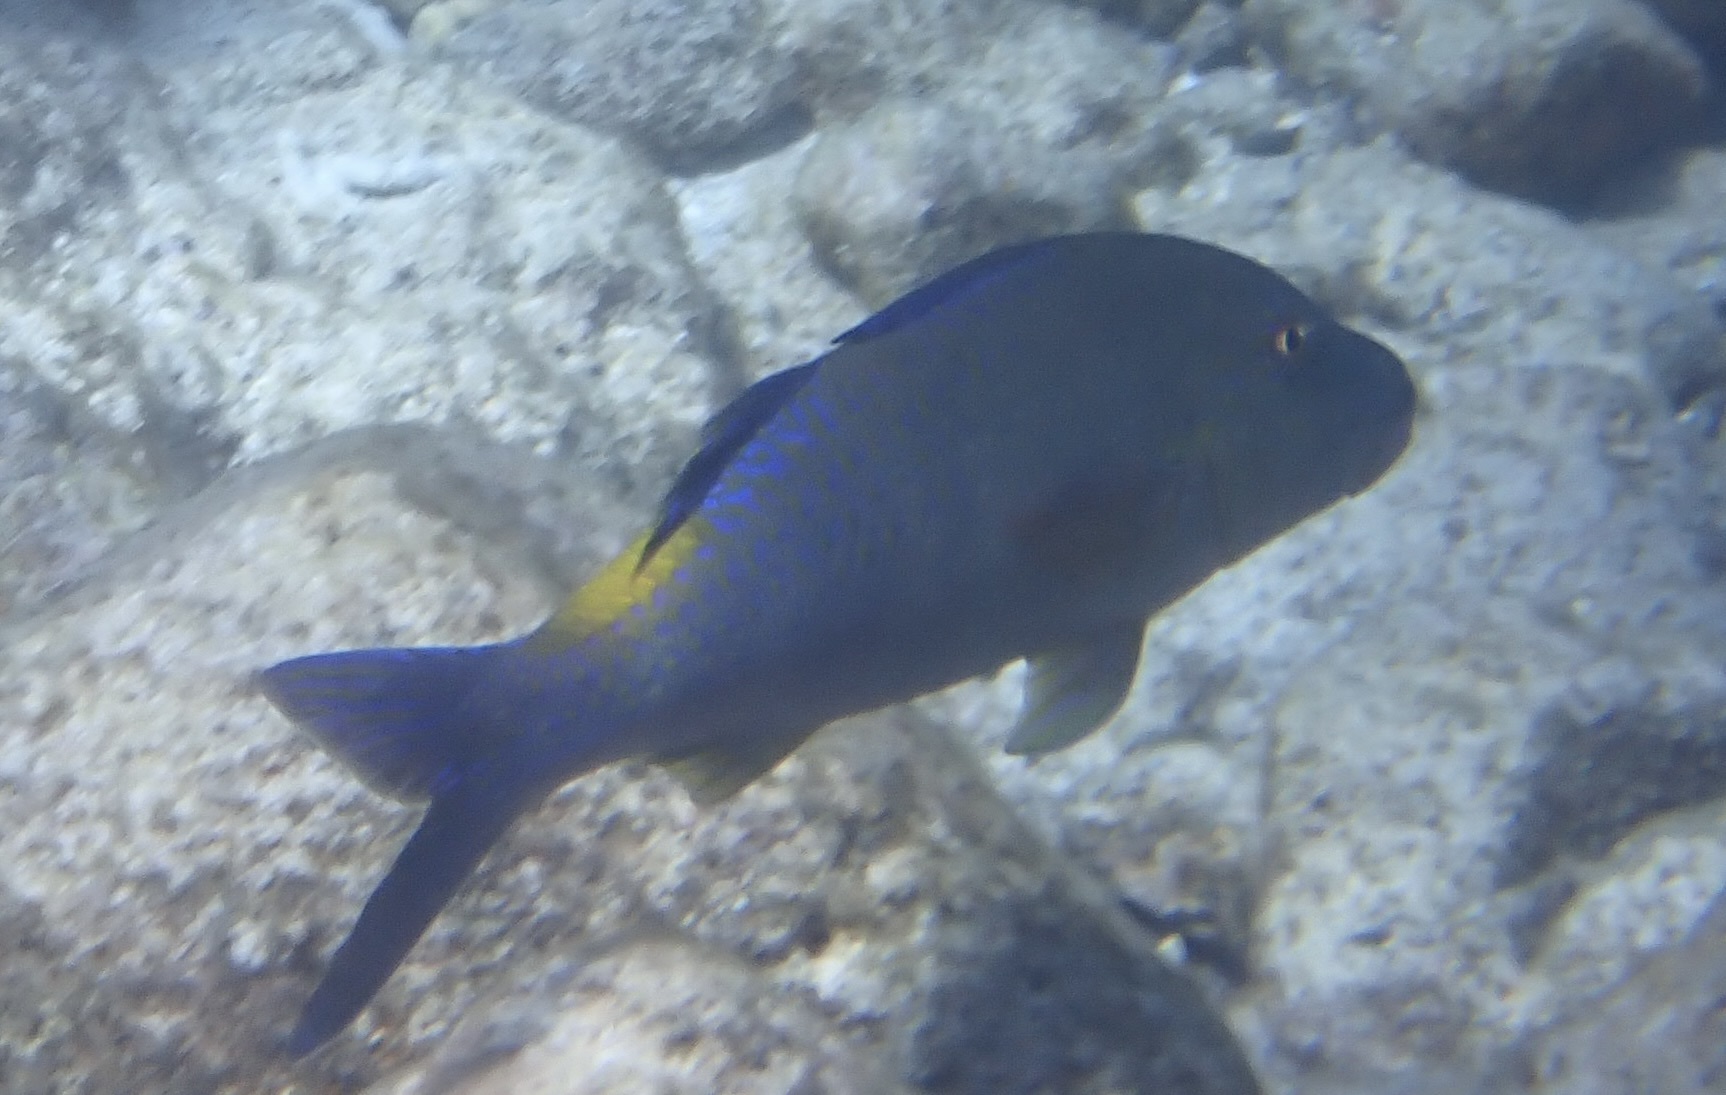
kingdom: Animalia
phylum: Chordata
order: Perciformes
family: Mullidae
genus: Parupeneus
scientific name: Parupeneus cyclostomus
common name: Goldsaddle goatfish
